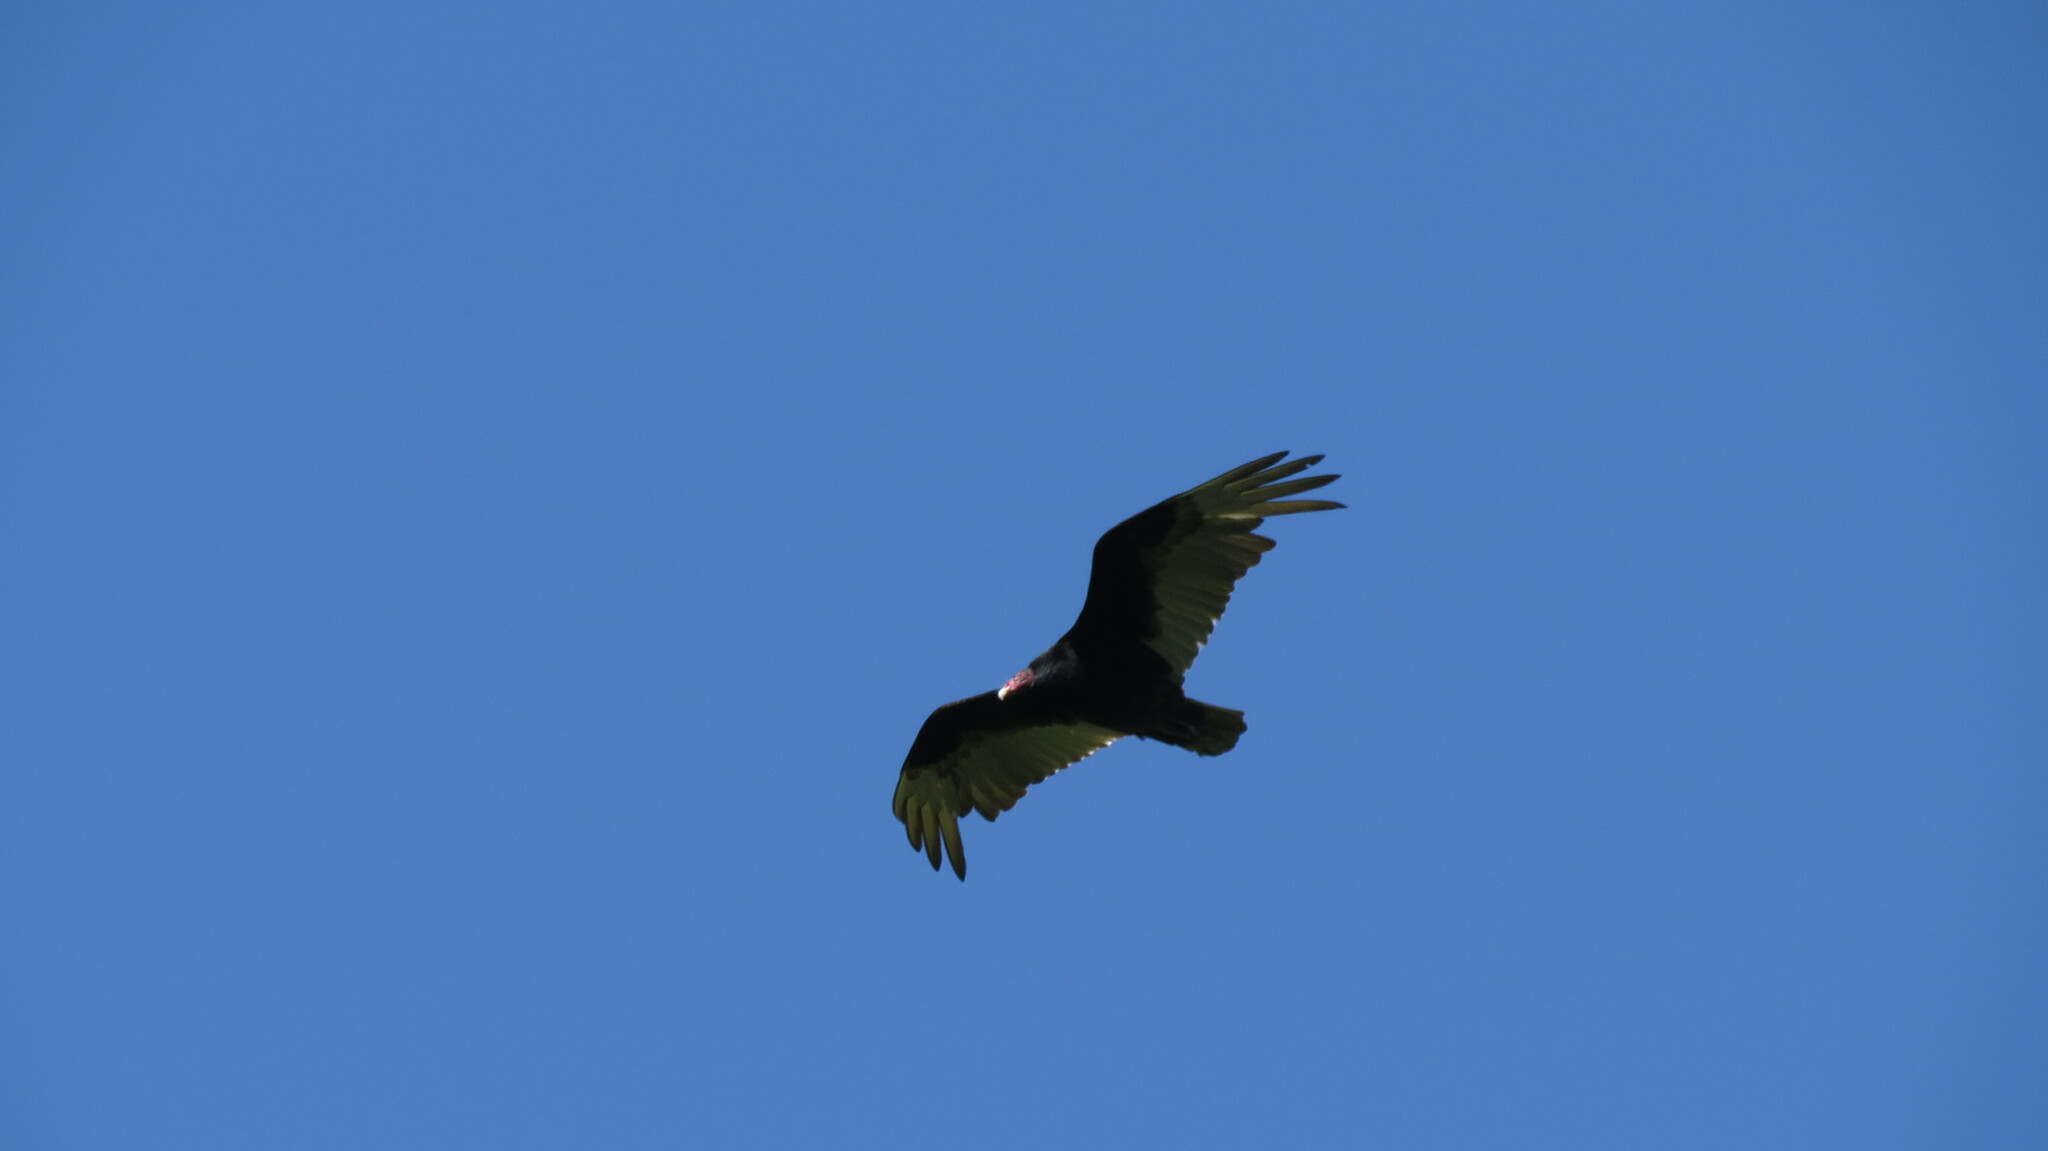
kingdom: Animalia
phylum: Chordata
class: Aves
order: Accipitriformes
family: Cathartidae
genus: Cathartes
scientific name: Cathartes aura
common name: Turkey vulture
